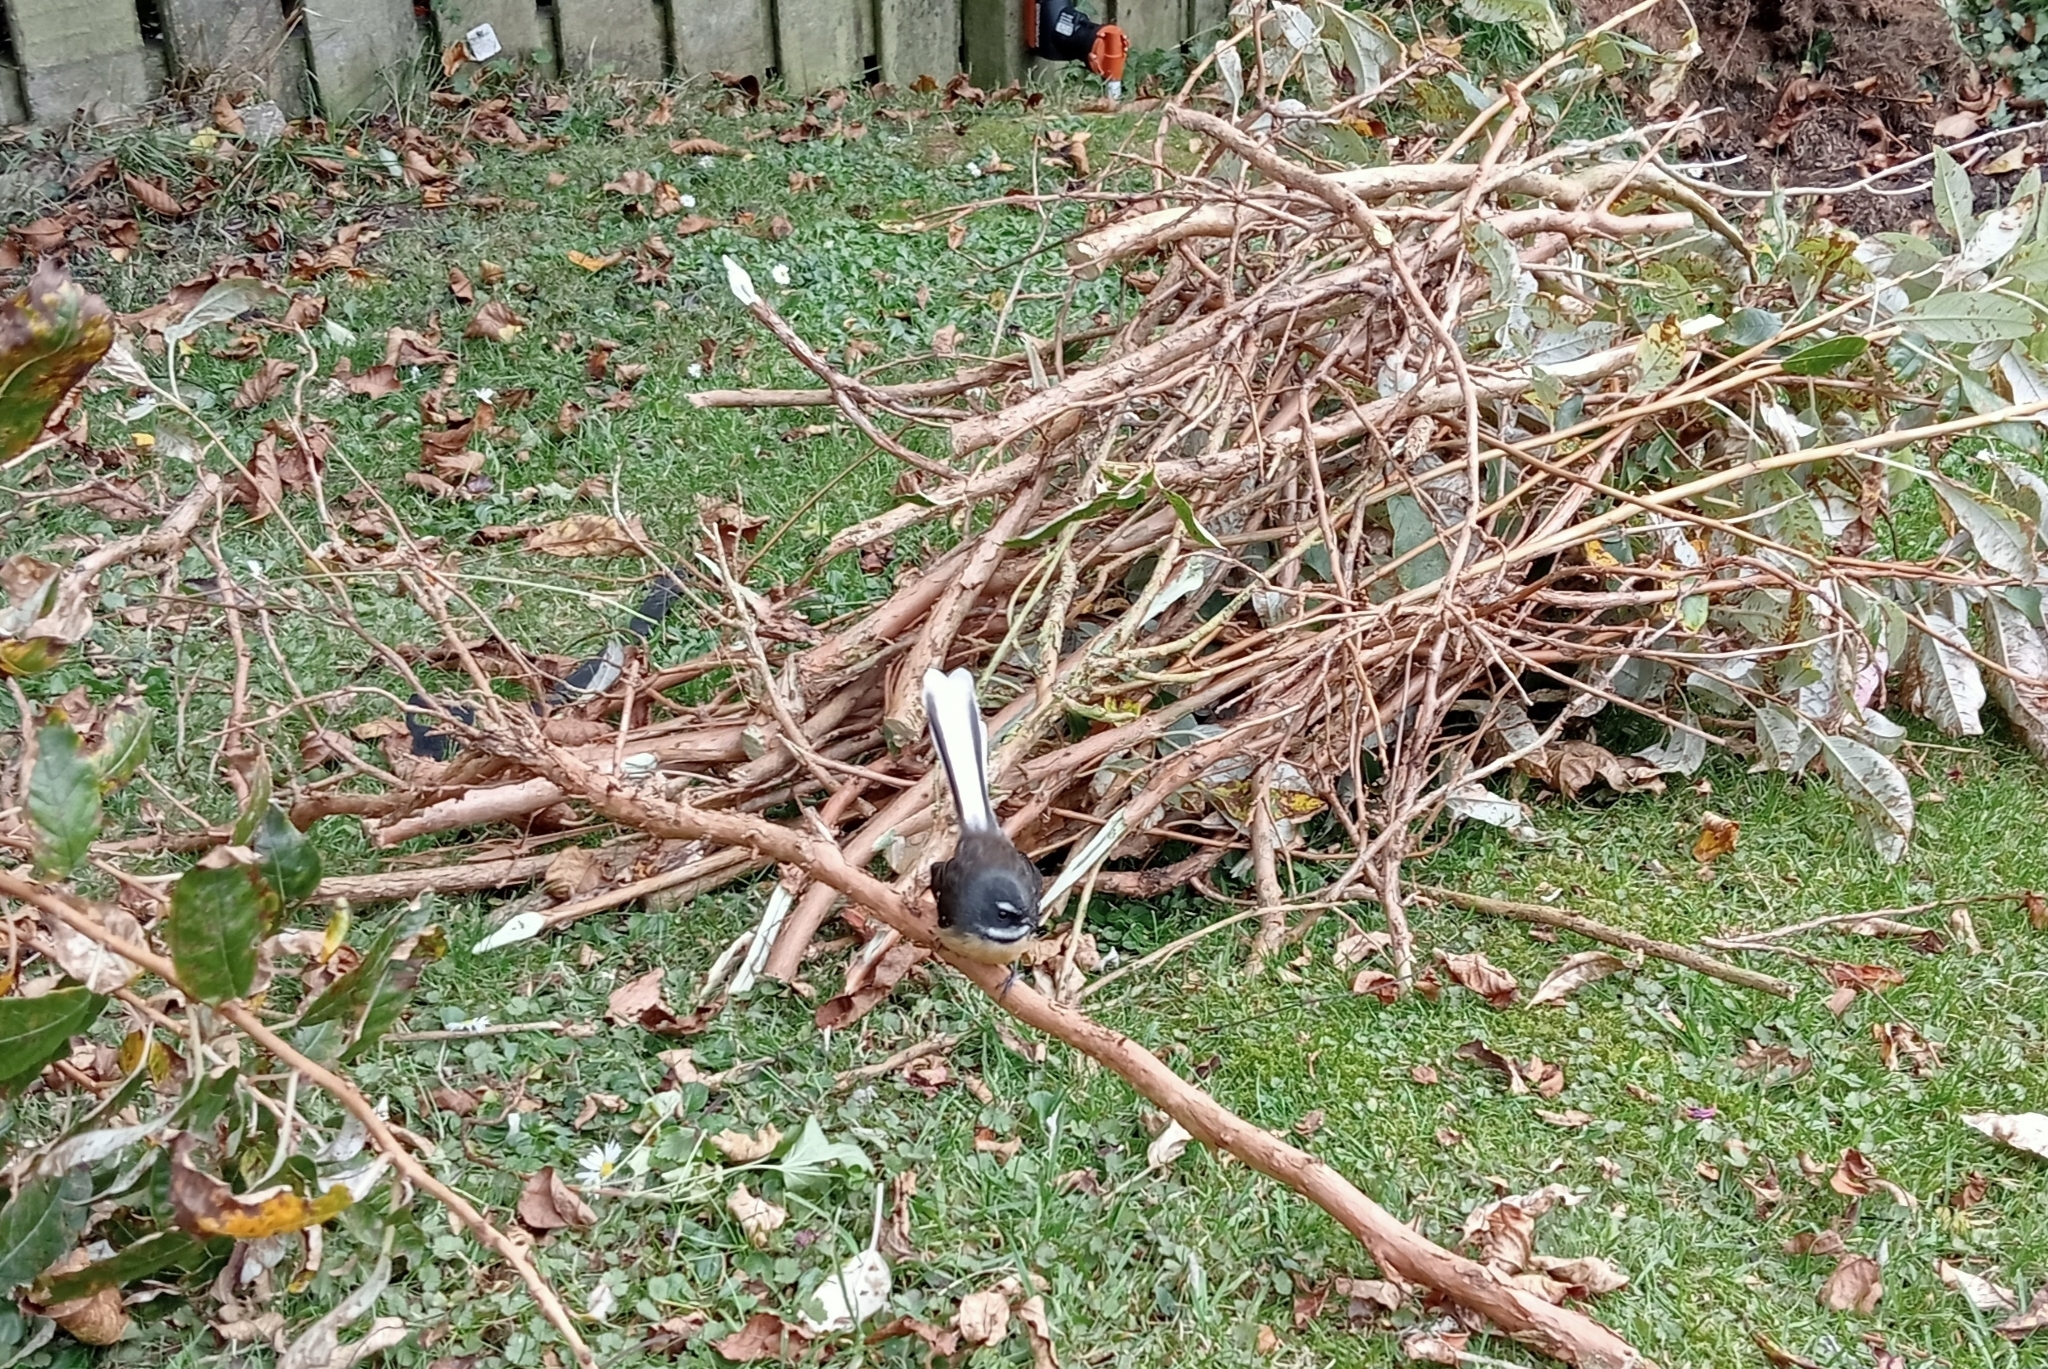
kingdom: Animalia
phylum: Chordata
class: Aves
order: Passeriformes
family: Rhipiduridae
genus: Rhipidura
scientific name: Rhipidura fuliginosa
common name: New zealand fantail
